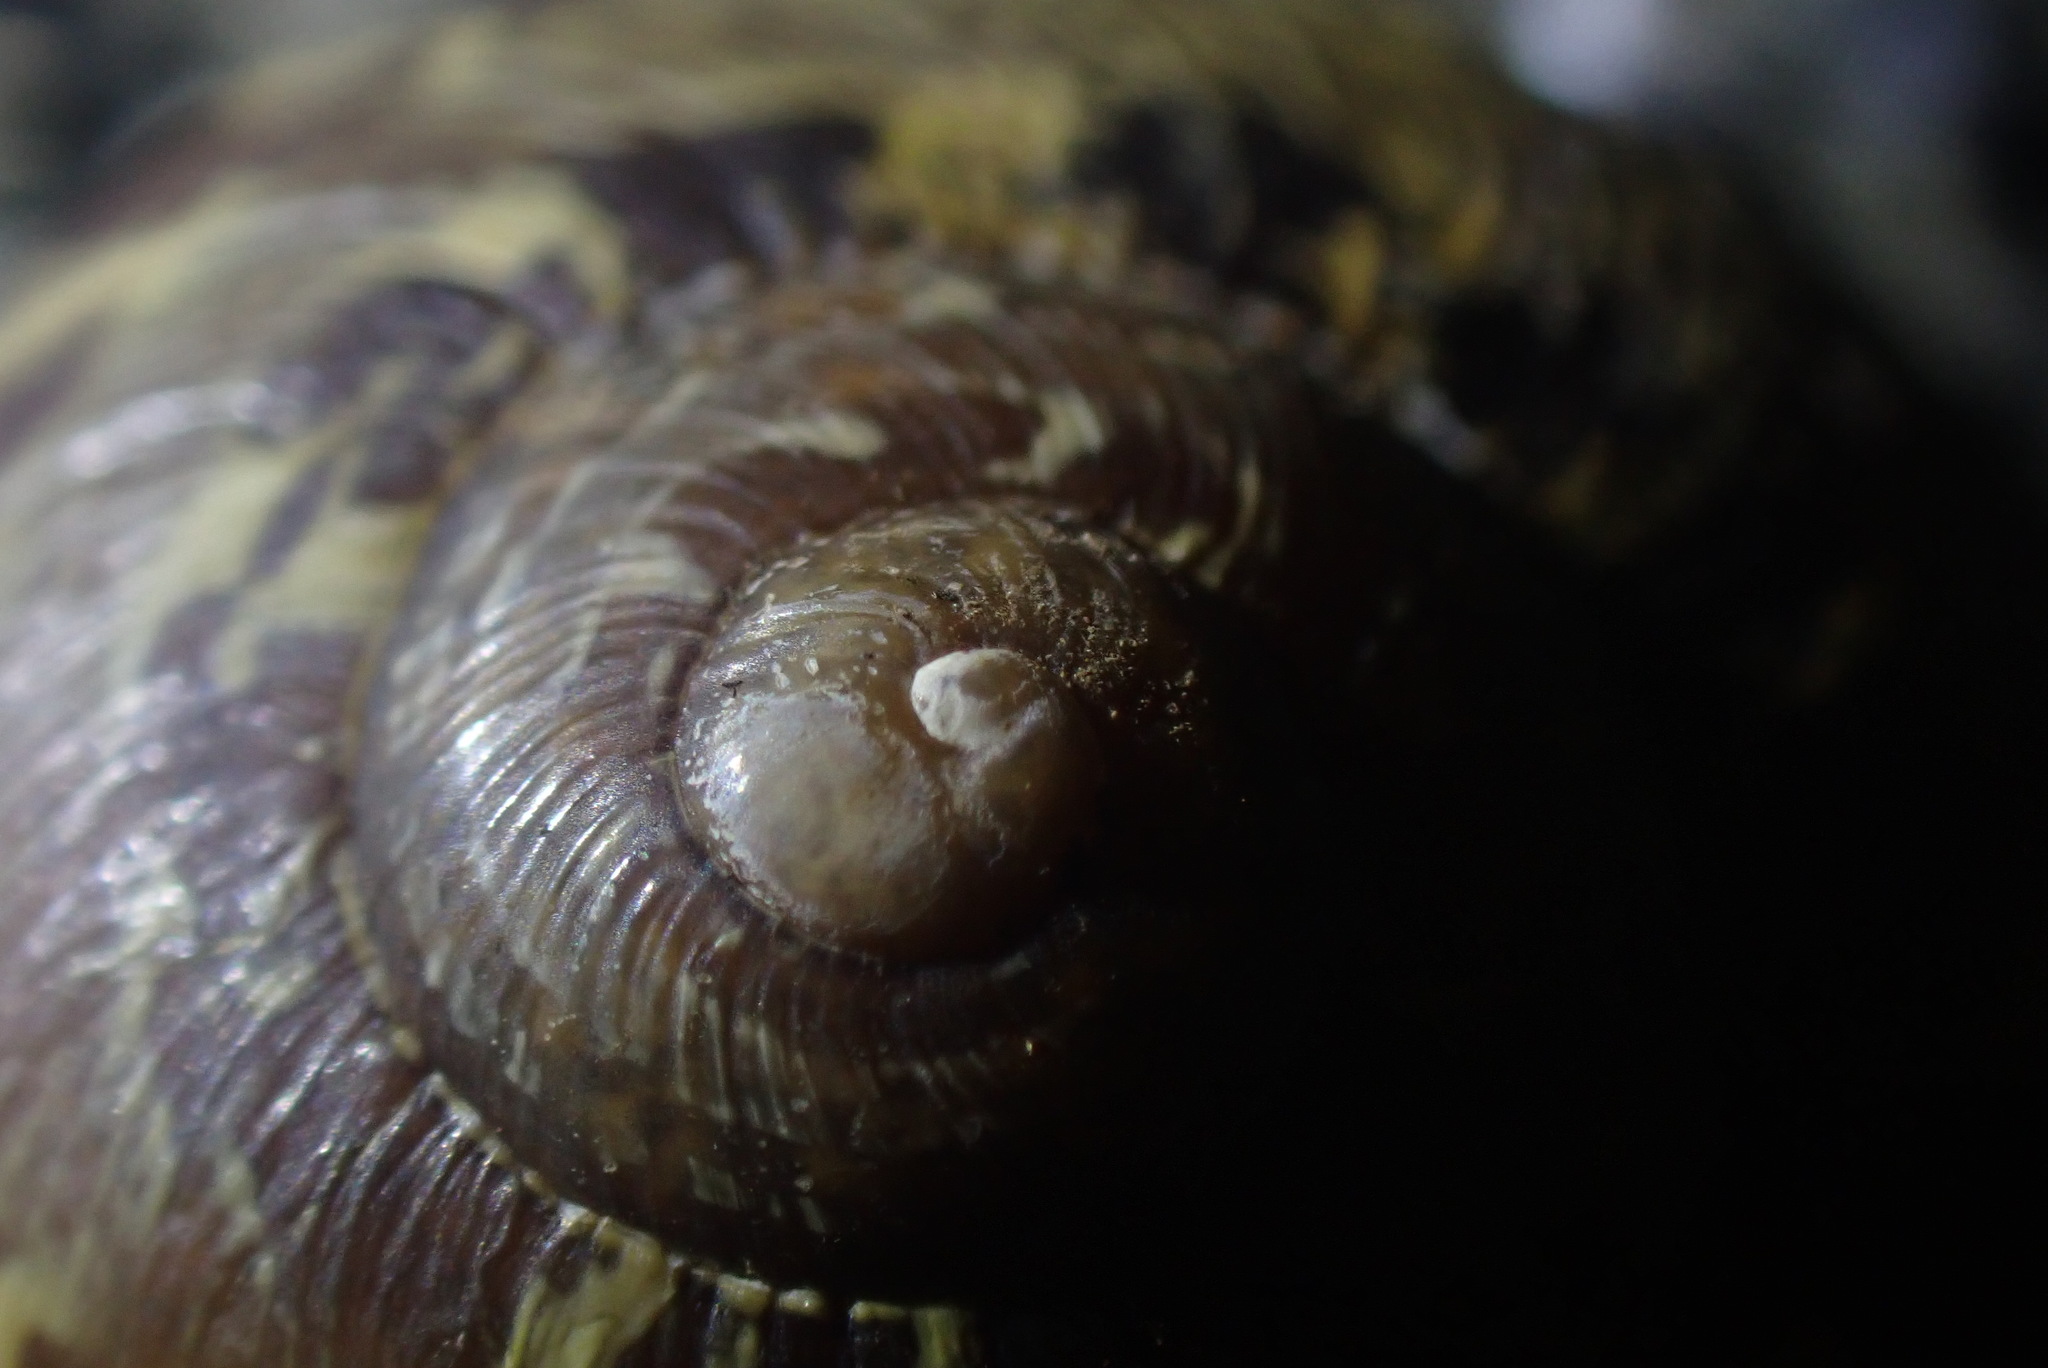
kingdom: Animalia
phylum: Mollusca
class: Gastropoda
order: Stylommatophora
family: Helicidae
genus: Cornu
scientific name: Cornu aspersum
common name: Brown garden snail
